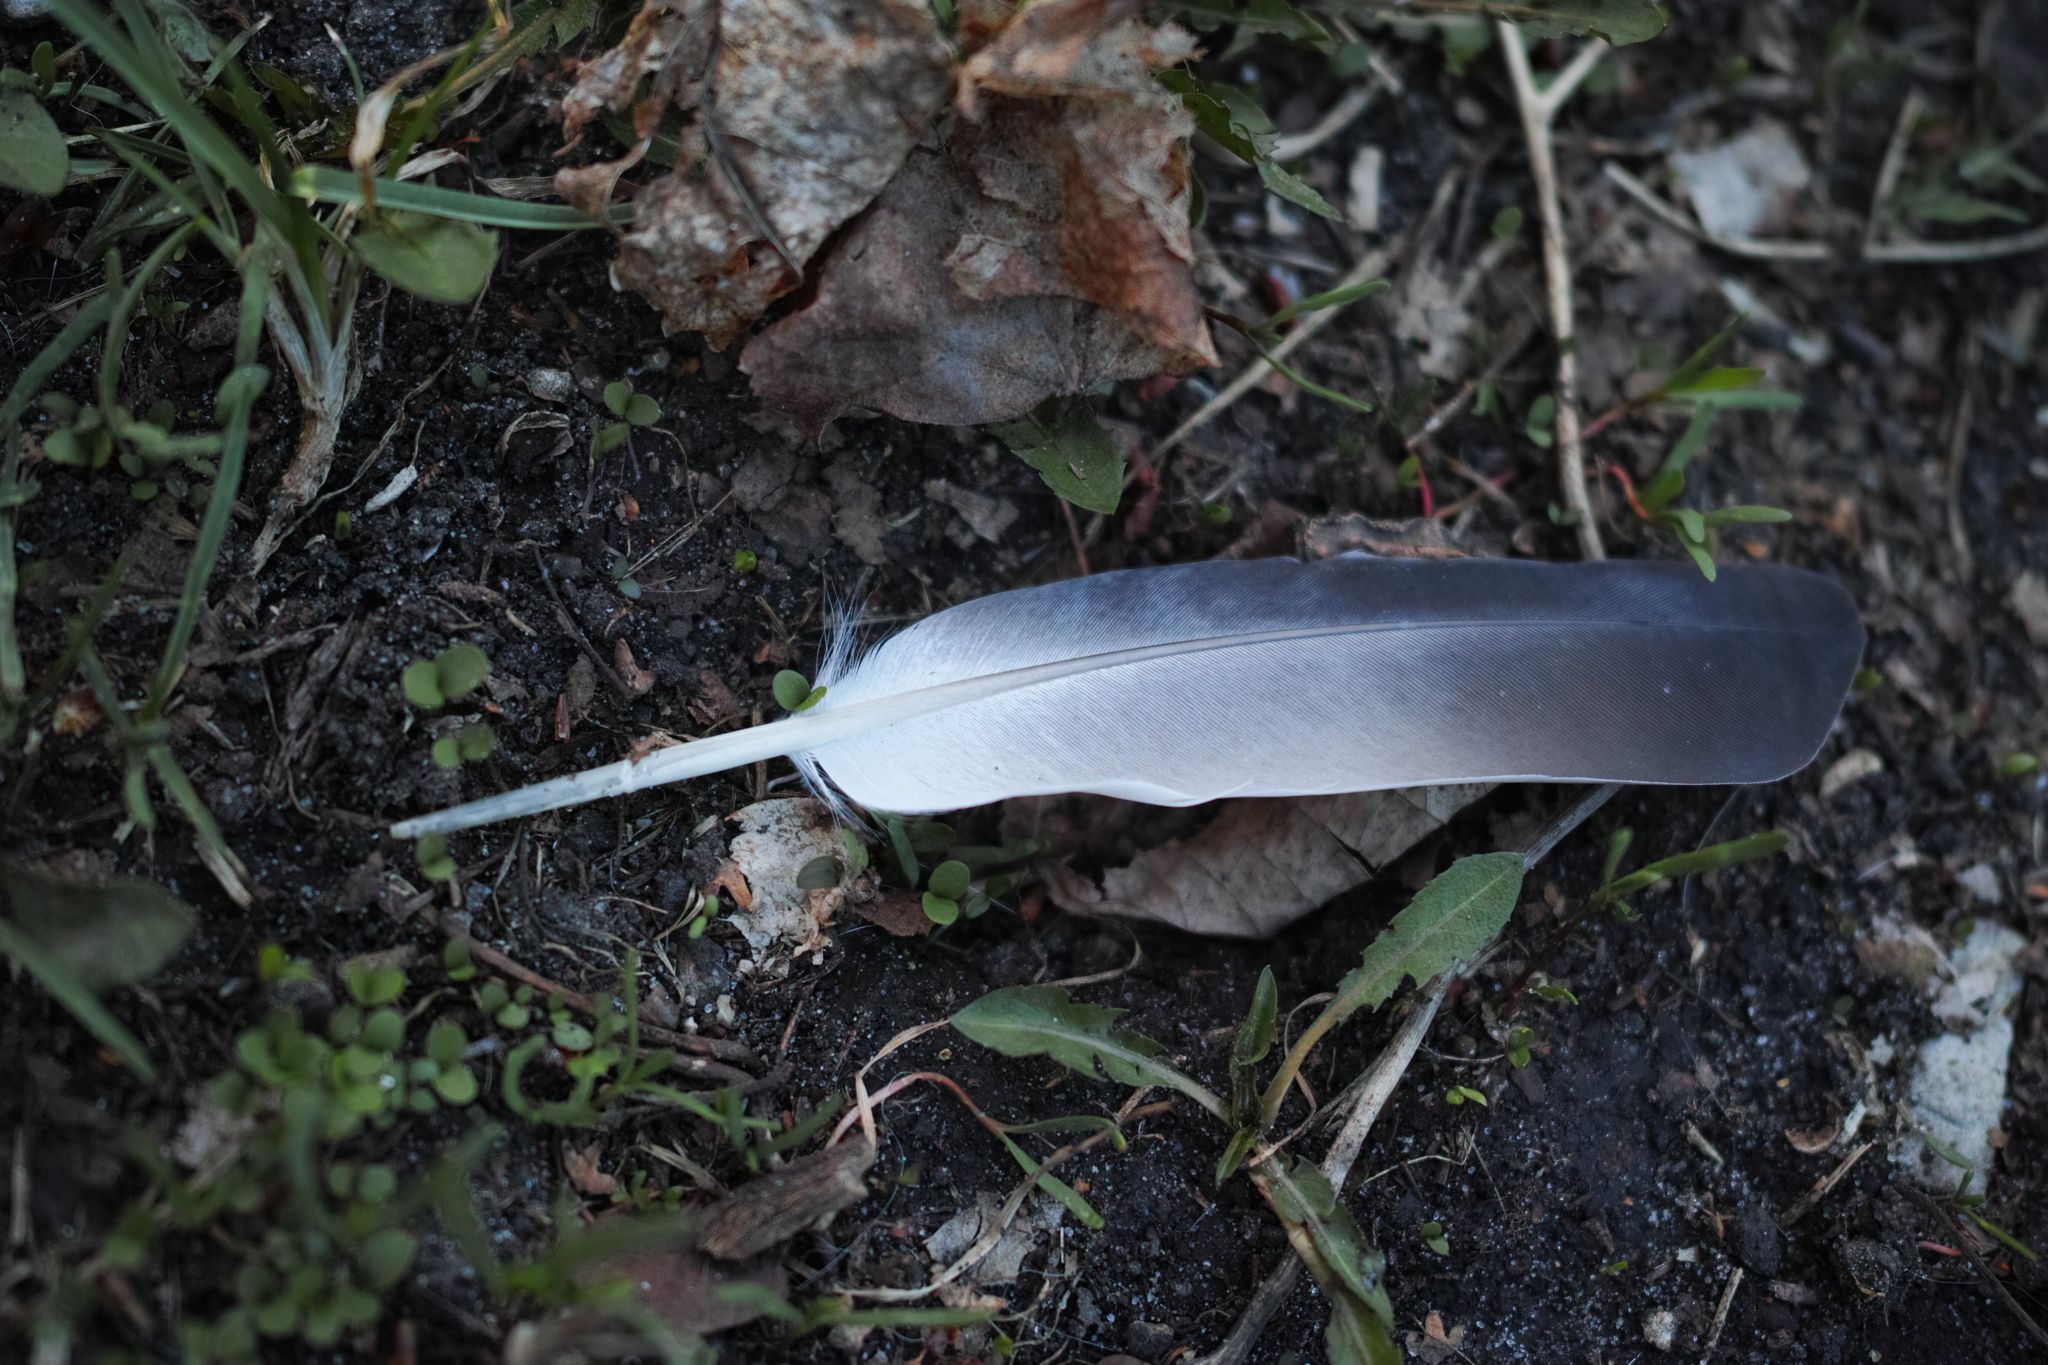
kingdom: Animalia
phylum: Chordata
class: Aves
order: Columbiformes
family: Columbidae
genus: Columba
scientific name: Columba livia
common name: Rock pigeon
